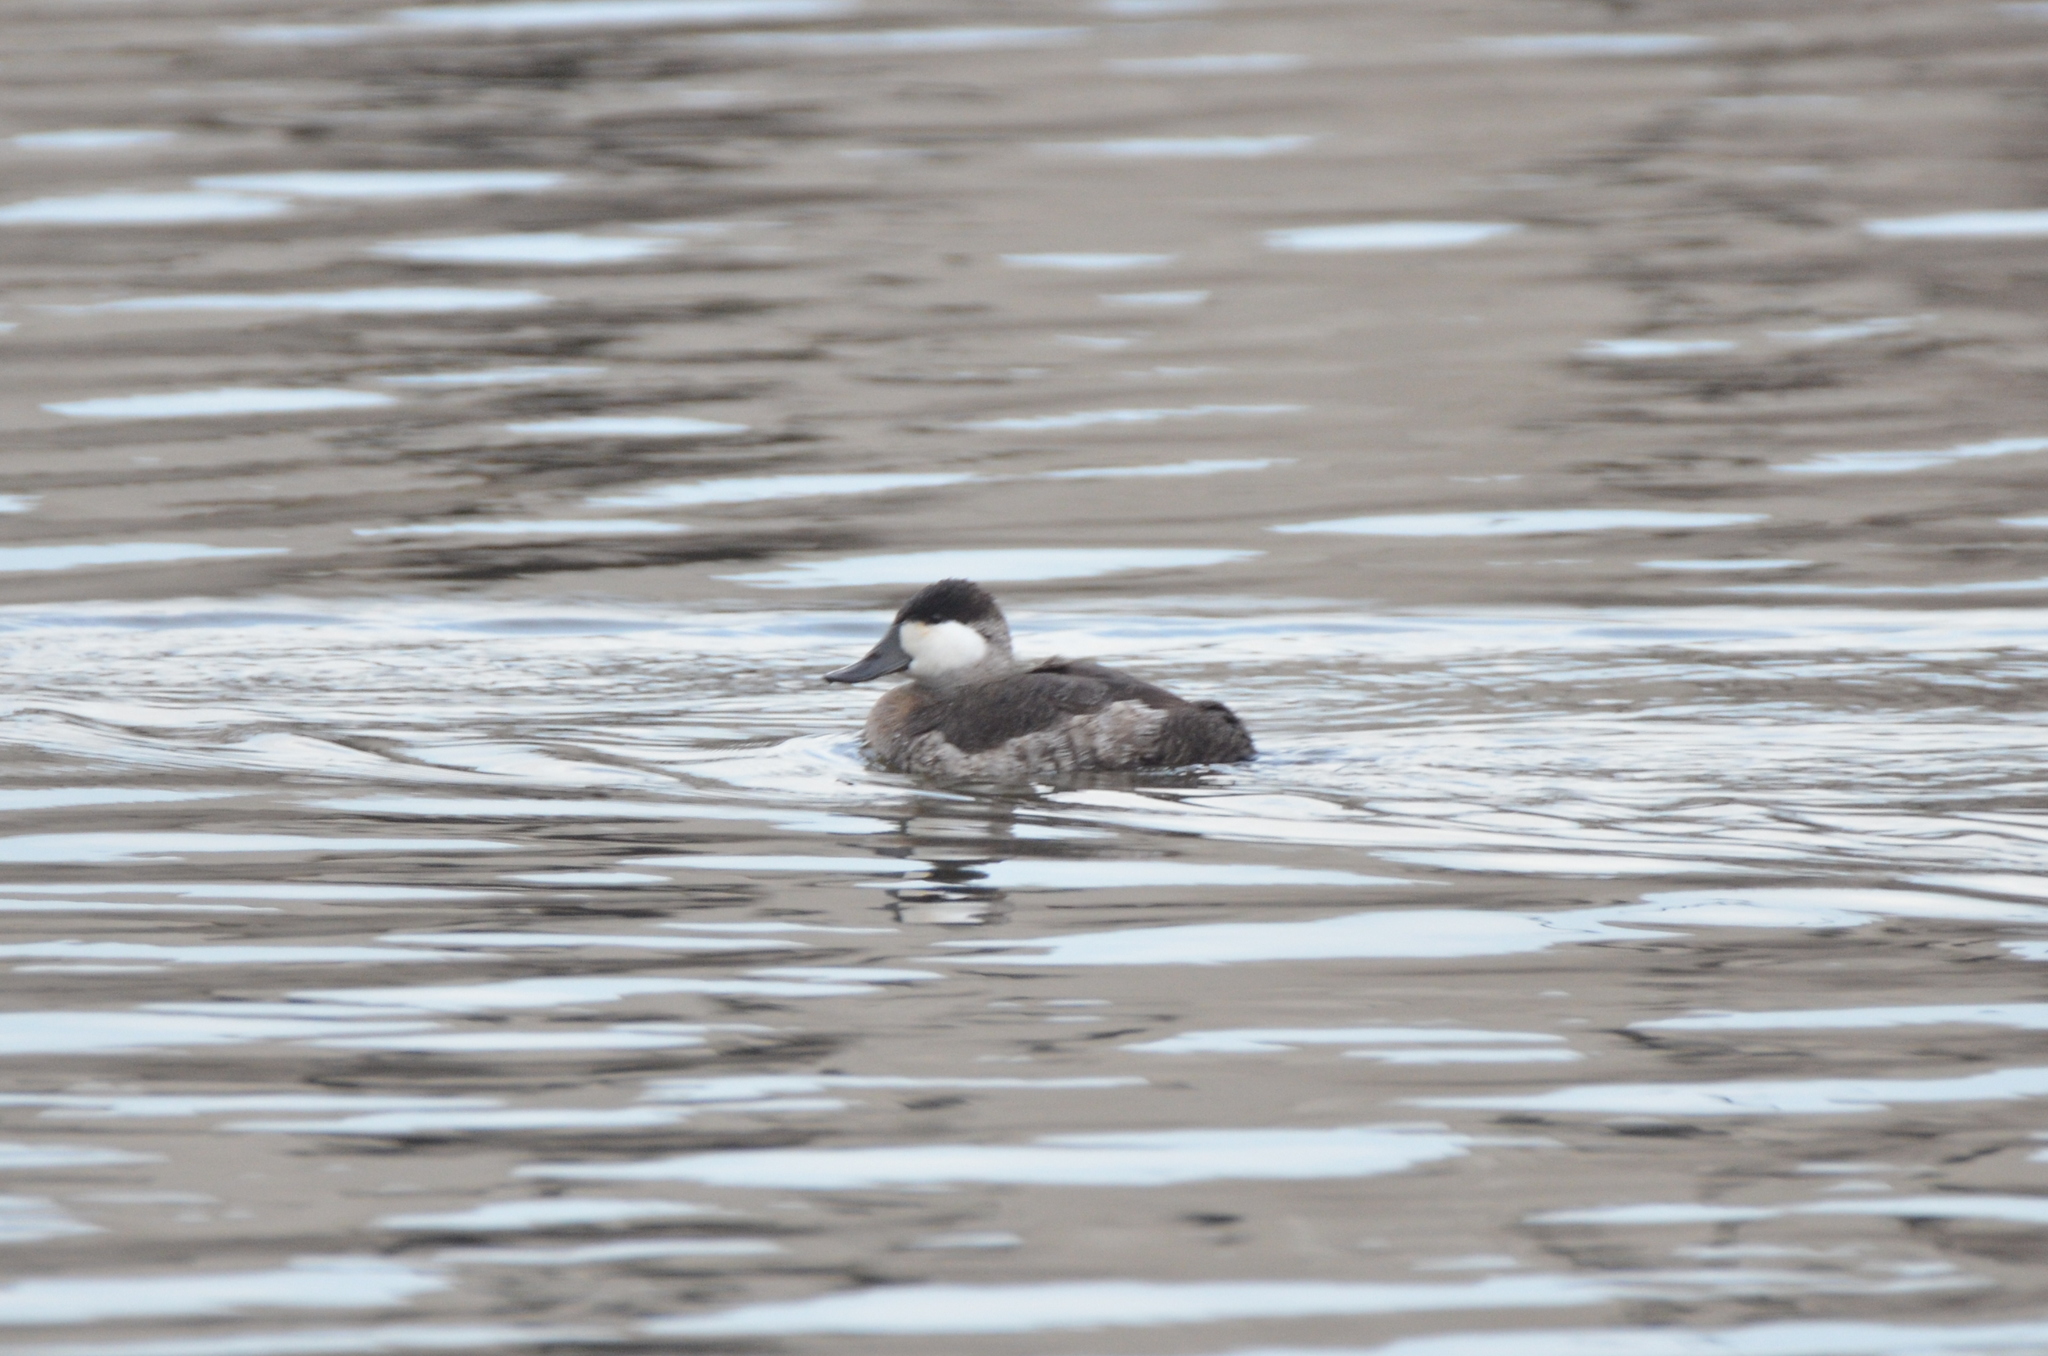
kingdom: Animalia
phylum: Chordata
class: Aves
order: Anseriformes
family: Anatidae
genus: Oxyura
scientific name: Oxyura jamaicensis
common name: Ruddy duck
